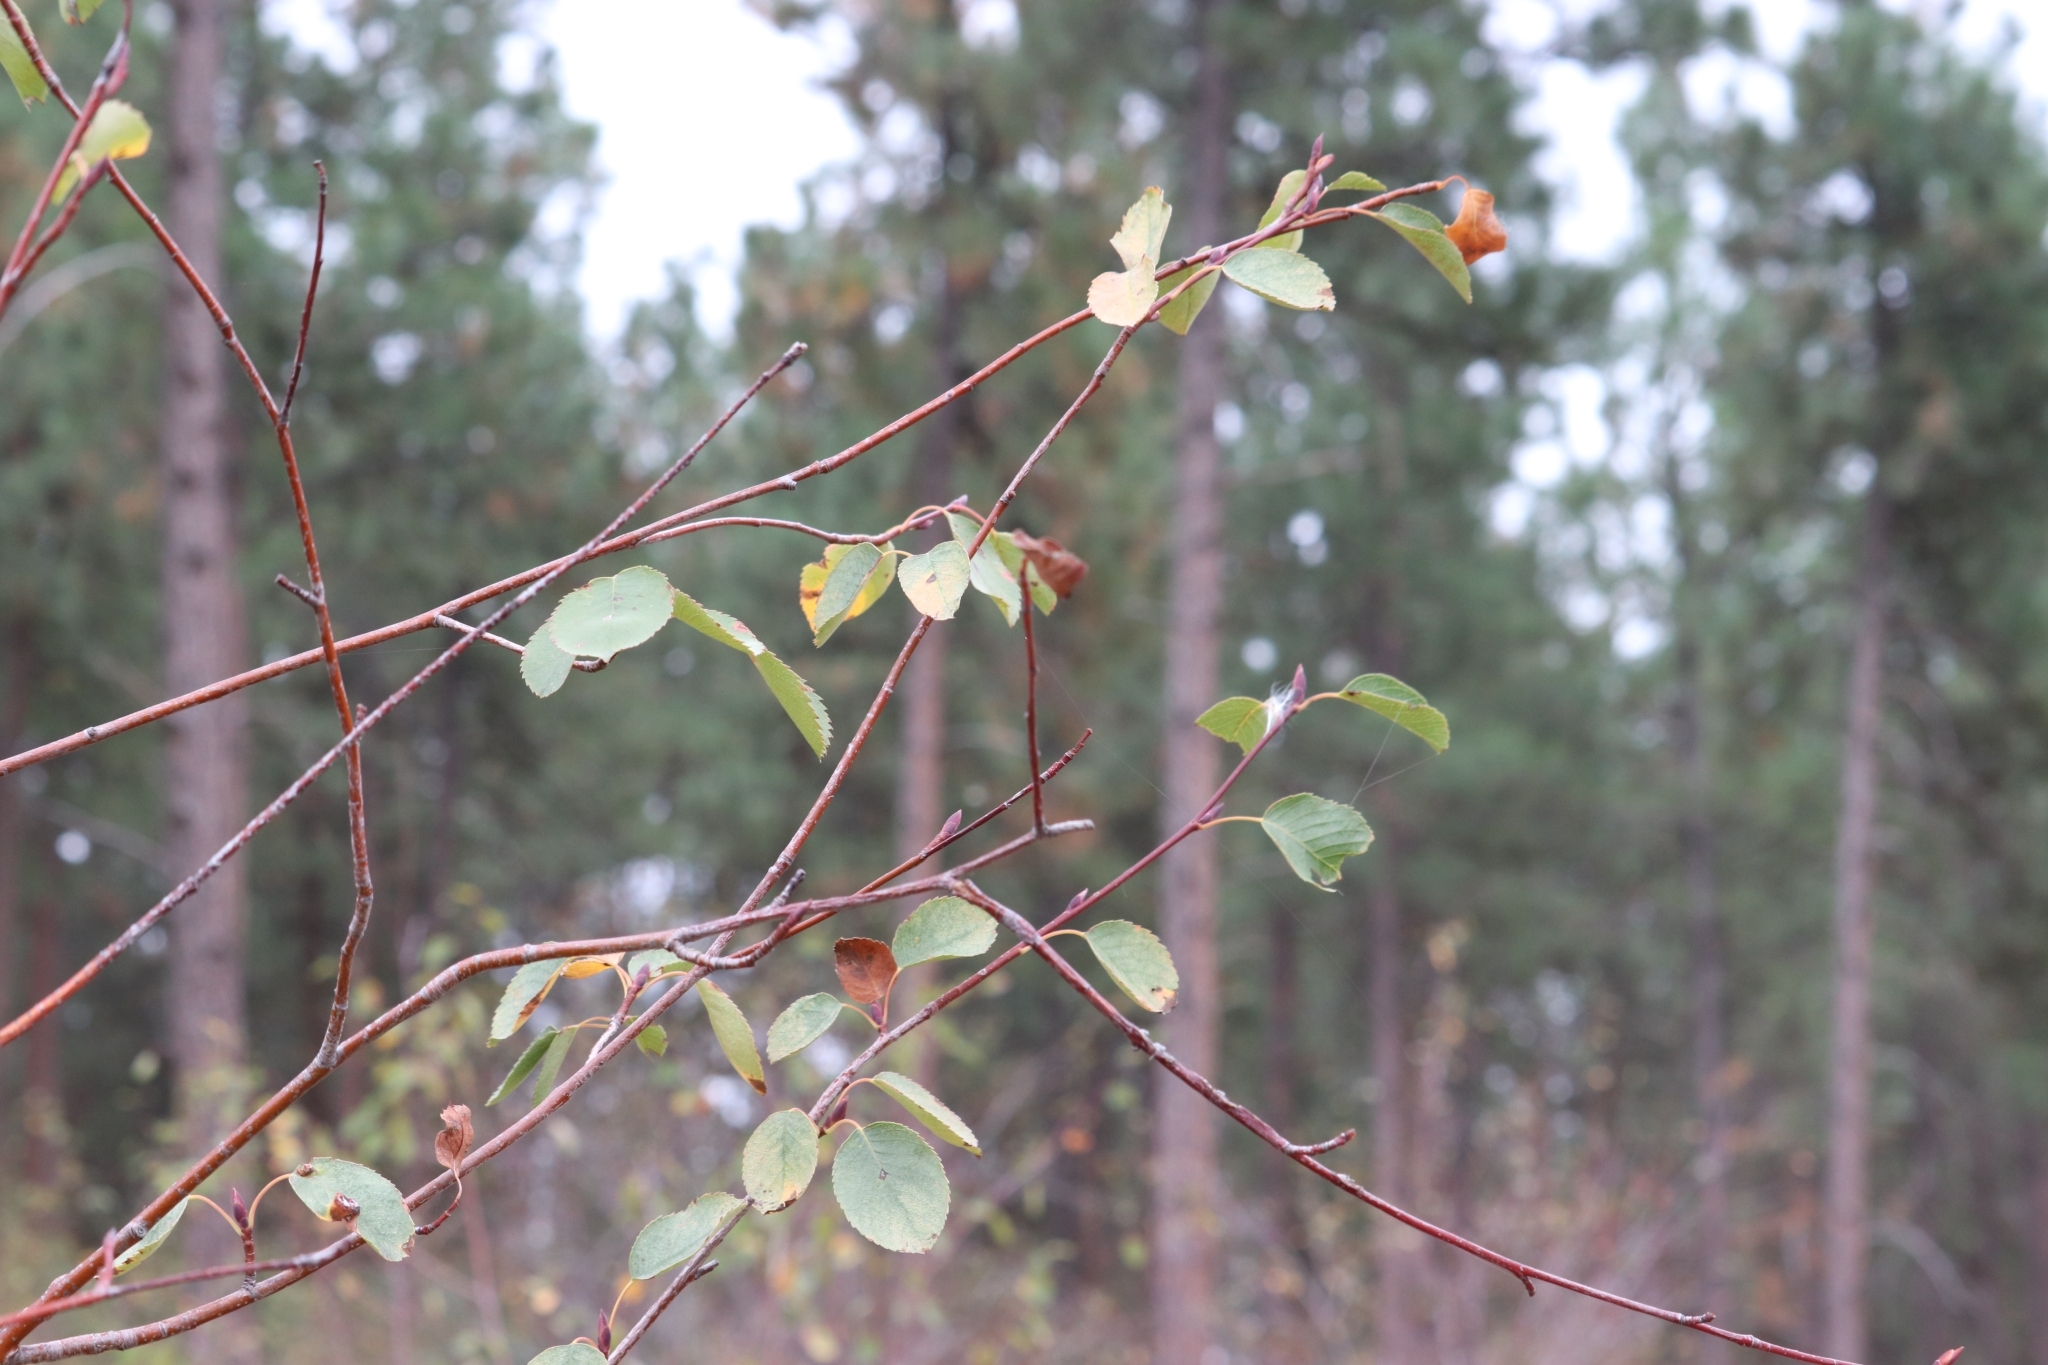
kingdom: Plantae
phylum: Tracheophyta
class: Magnoliopsida
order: Rosales
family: Rosaceae
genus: Amelanchier
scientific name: Amelanchier alnifolia
